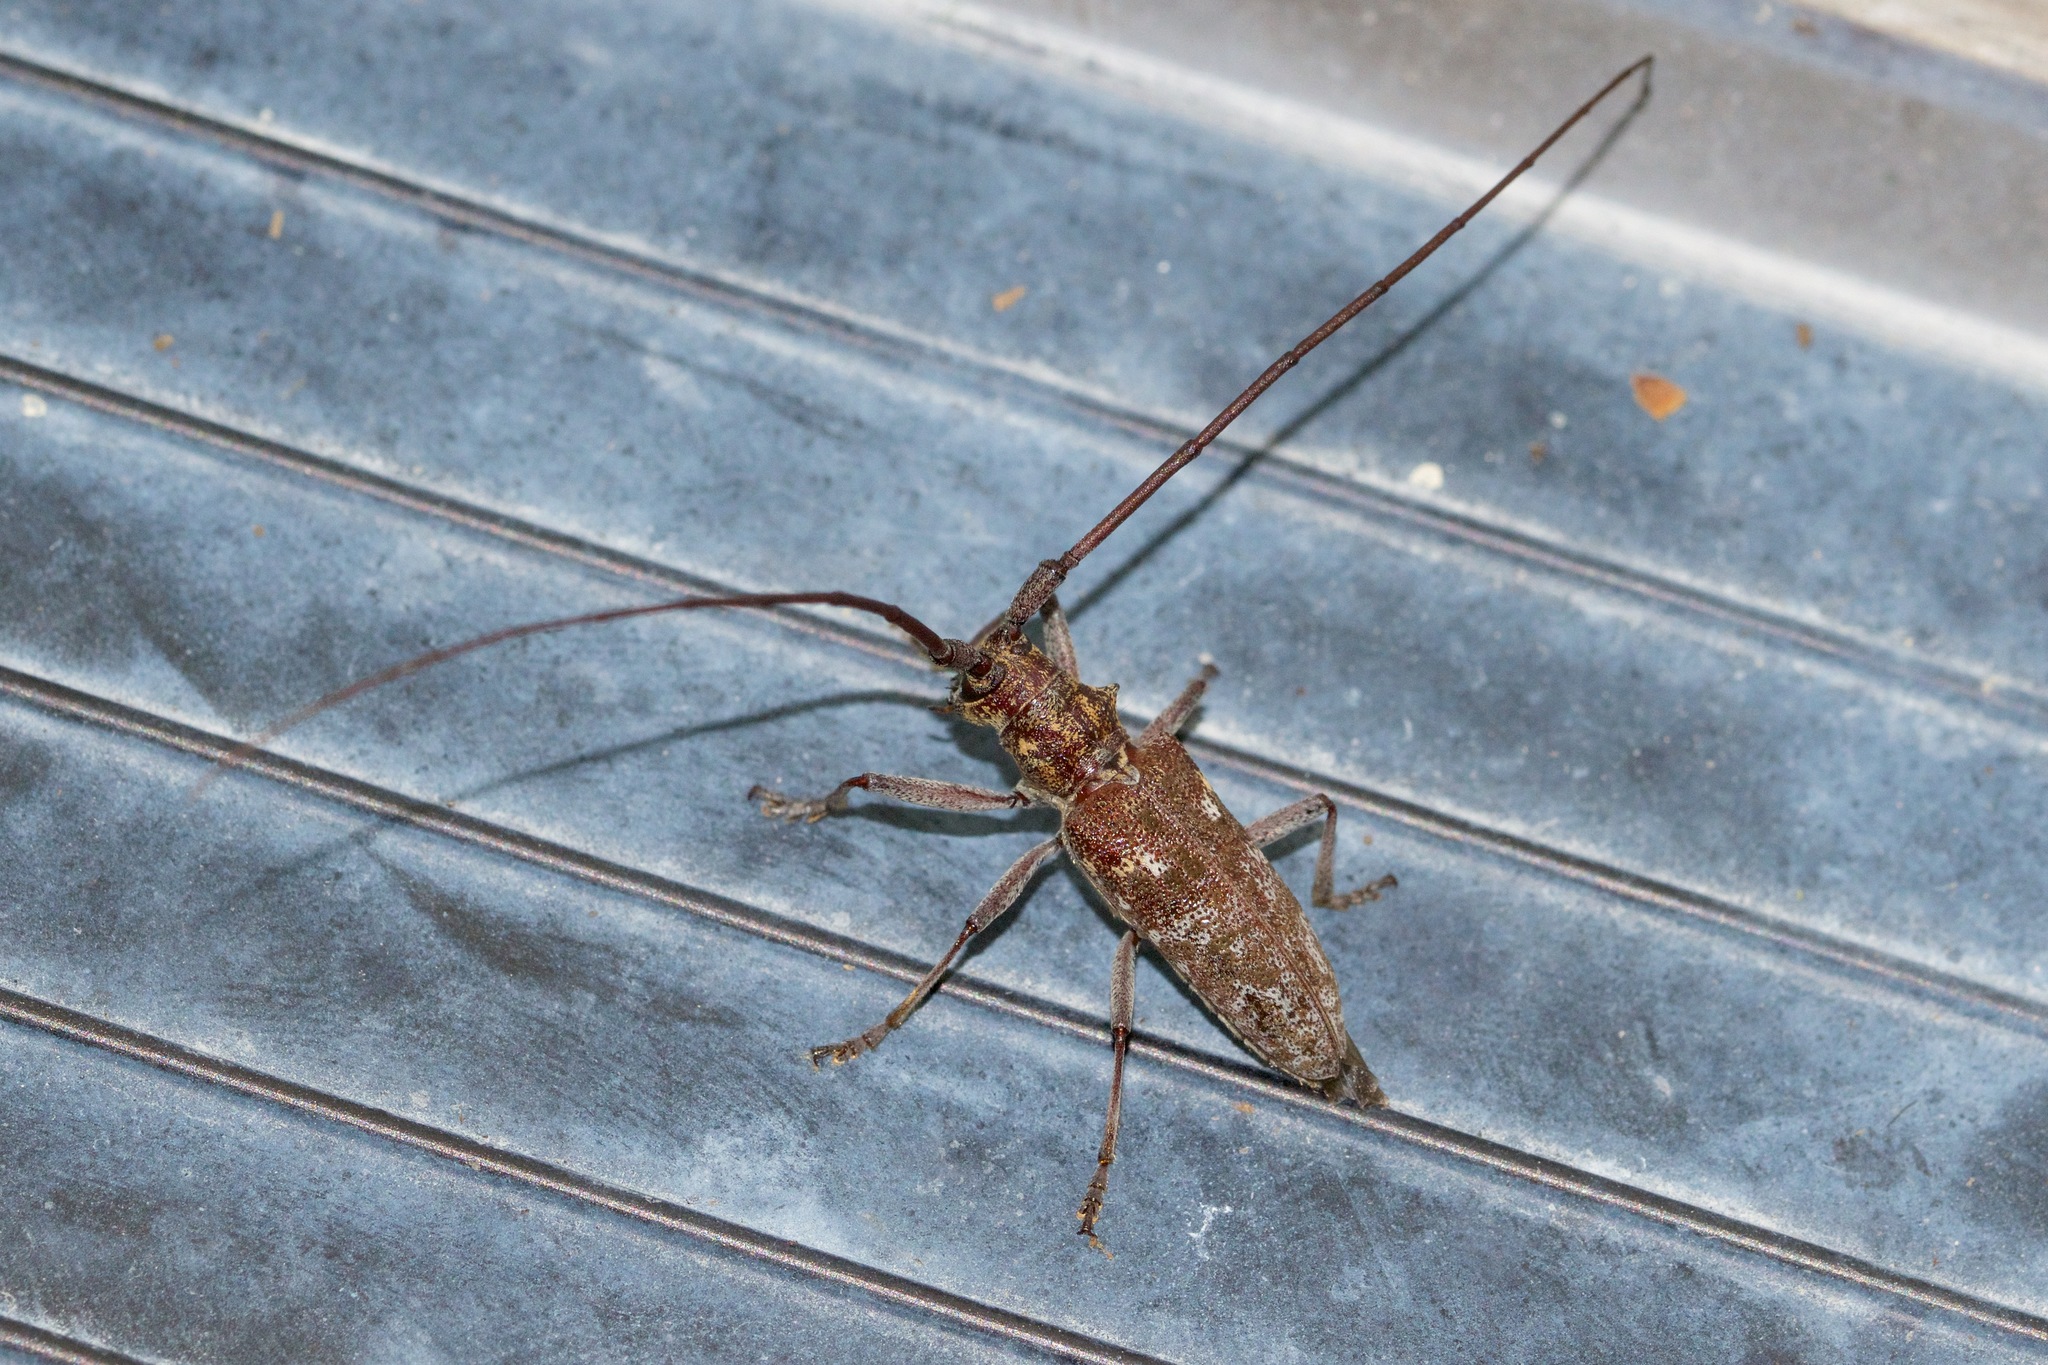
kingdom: Animalia
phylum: Arthropoda
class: Insecta
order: Coleoptera
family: Cerambycidae
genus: Monochamus
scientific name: Monochamus carolinensis
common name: Carolina pine sawyer
